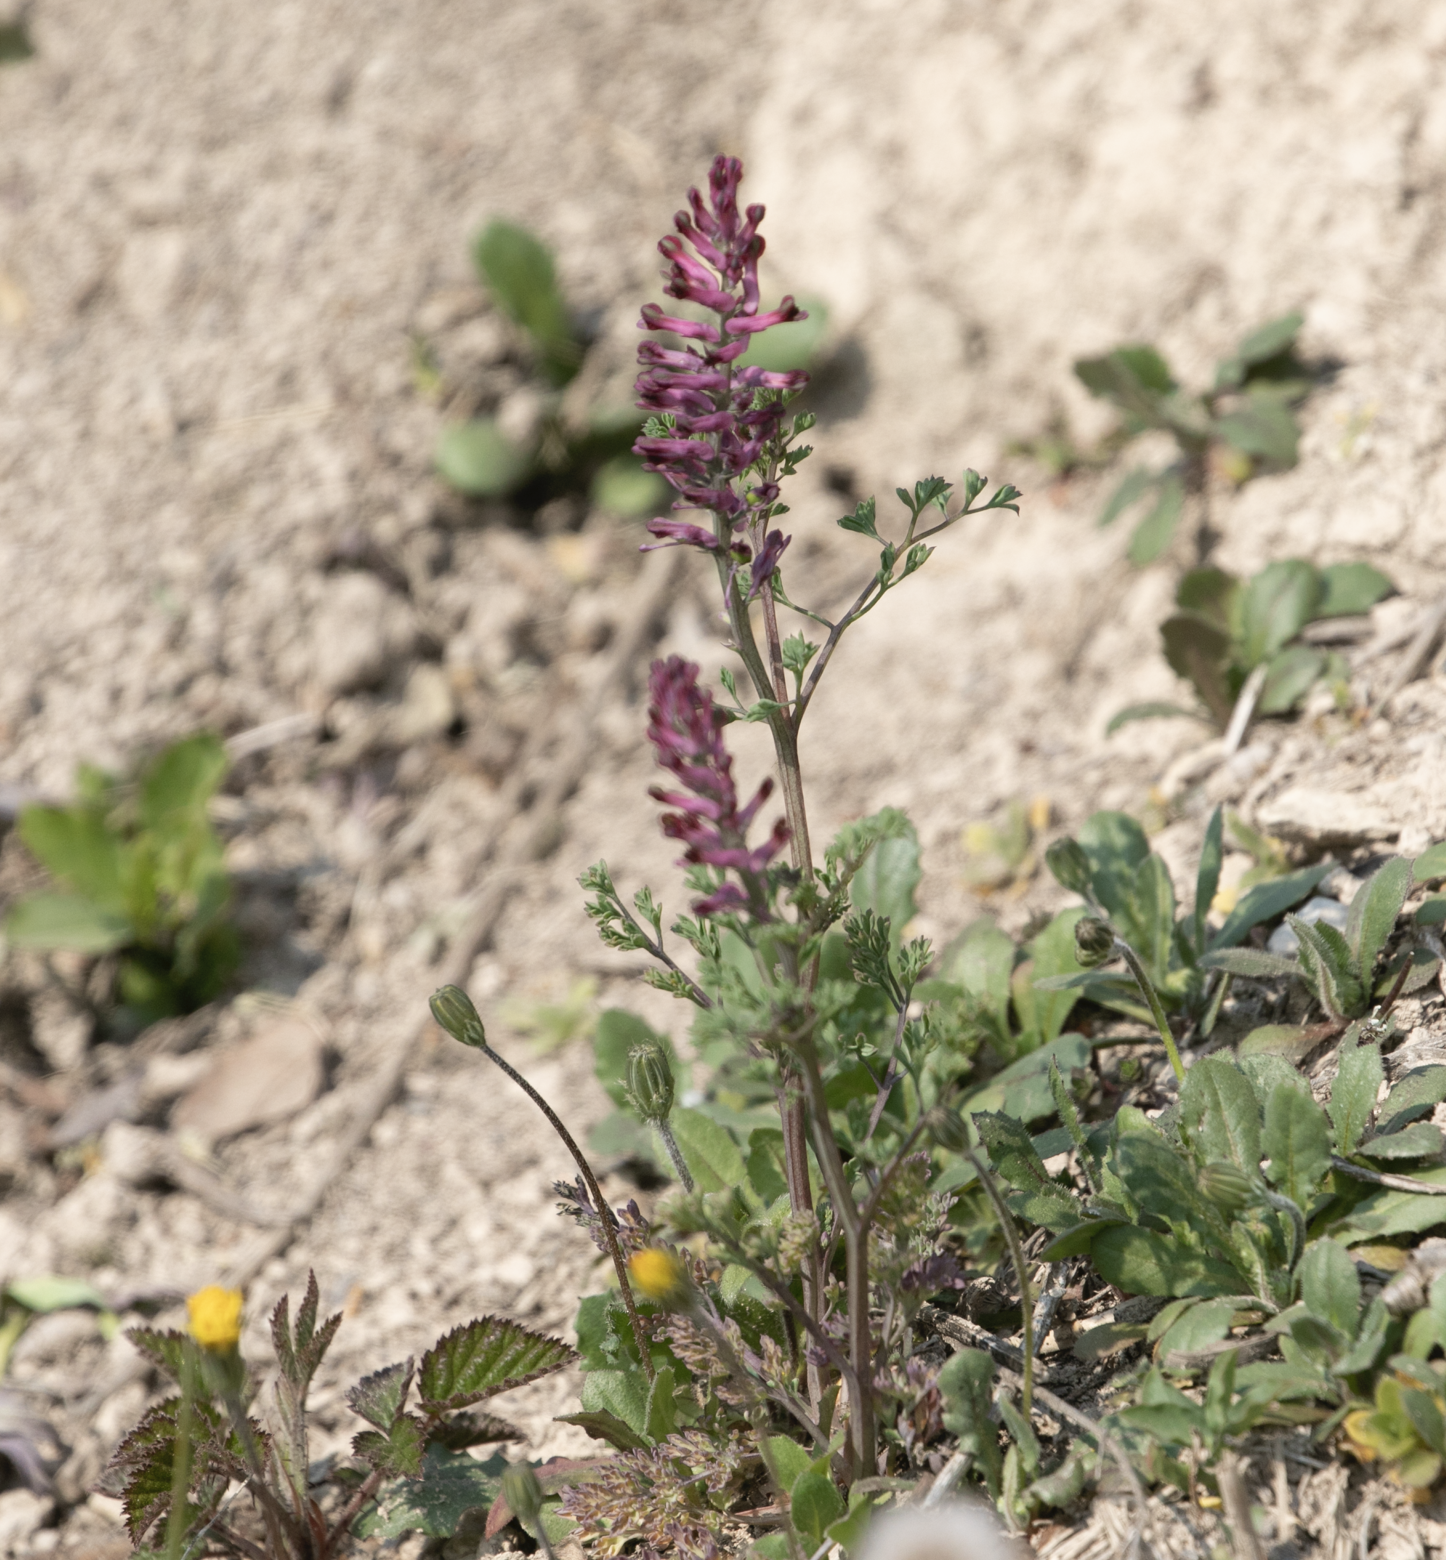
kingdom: Plantae
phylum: Tracheophyta
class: Magnoliopsida
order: Ranunculales
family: Papaveraceae
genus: Fumaria
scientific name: Fumaria officinalis
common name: Common fumitory
